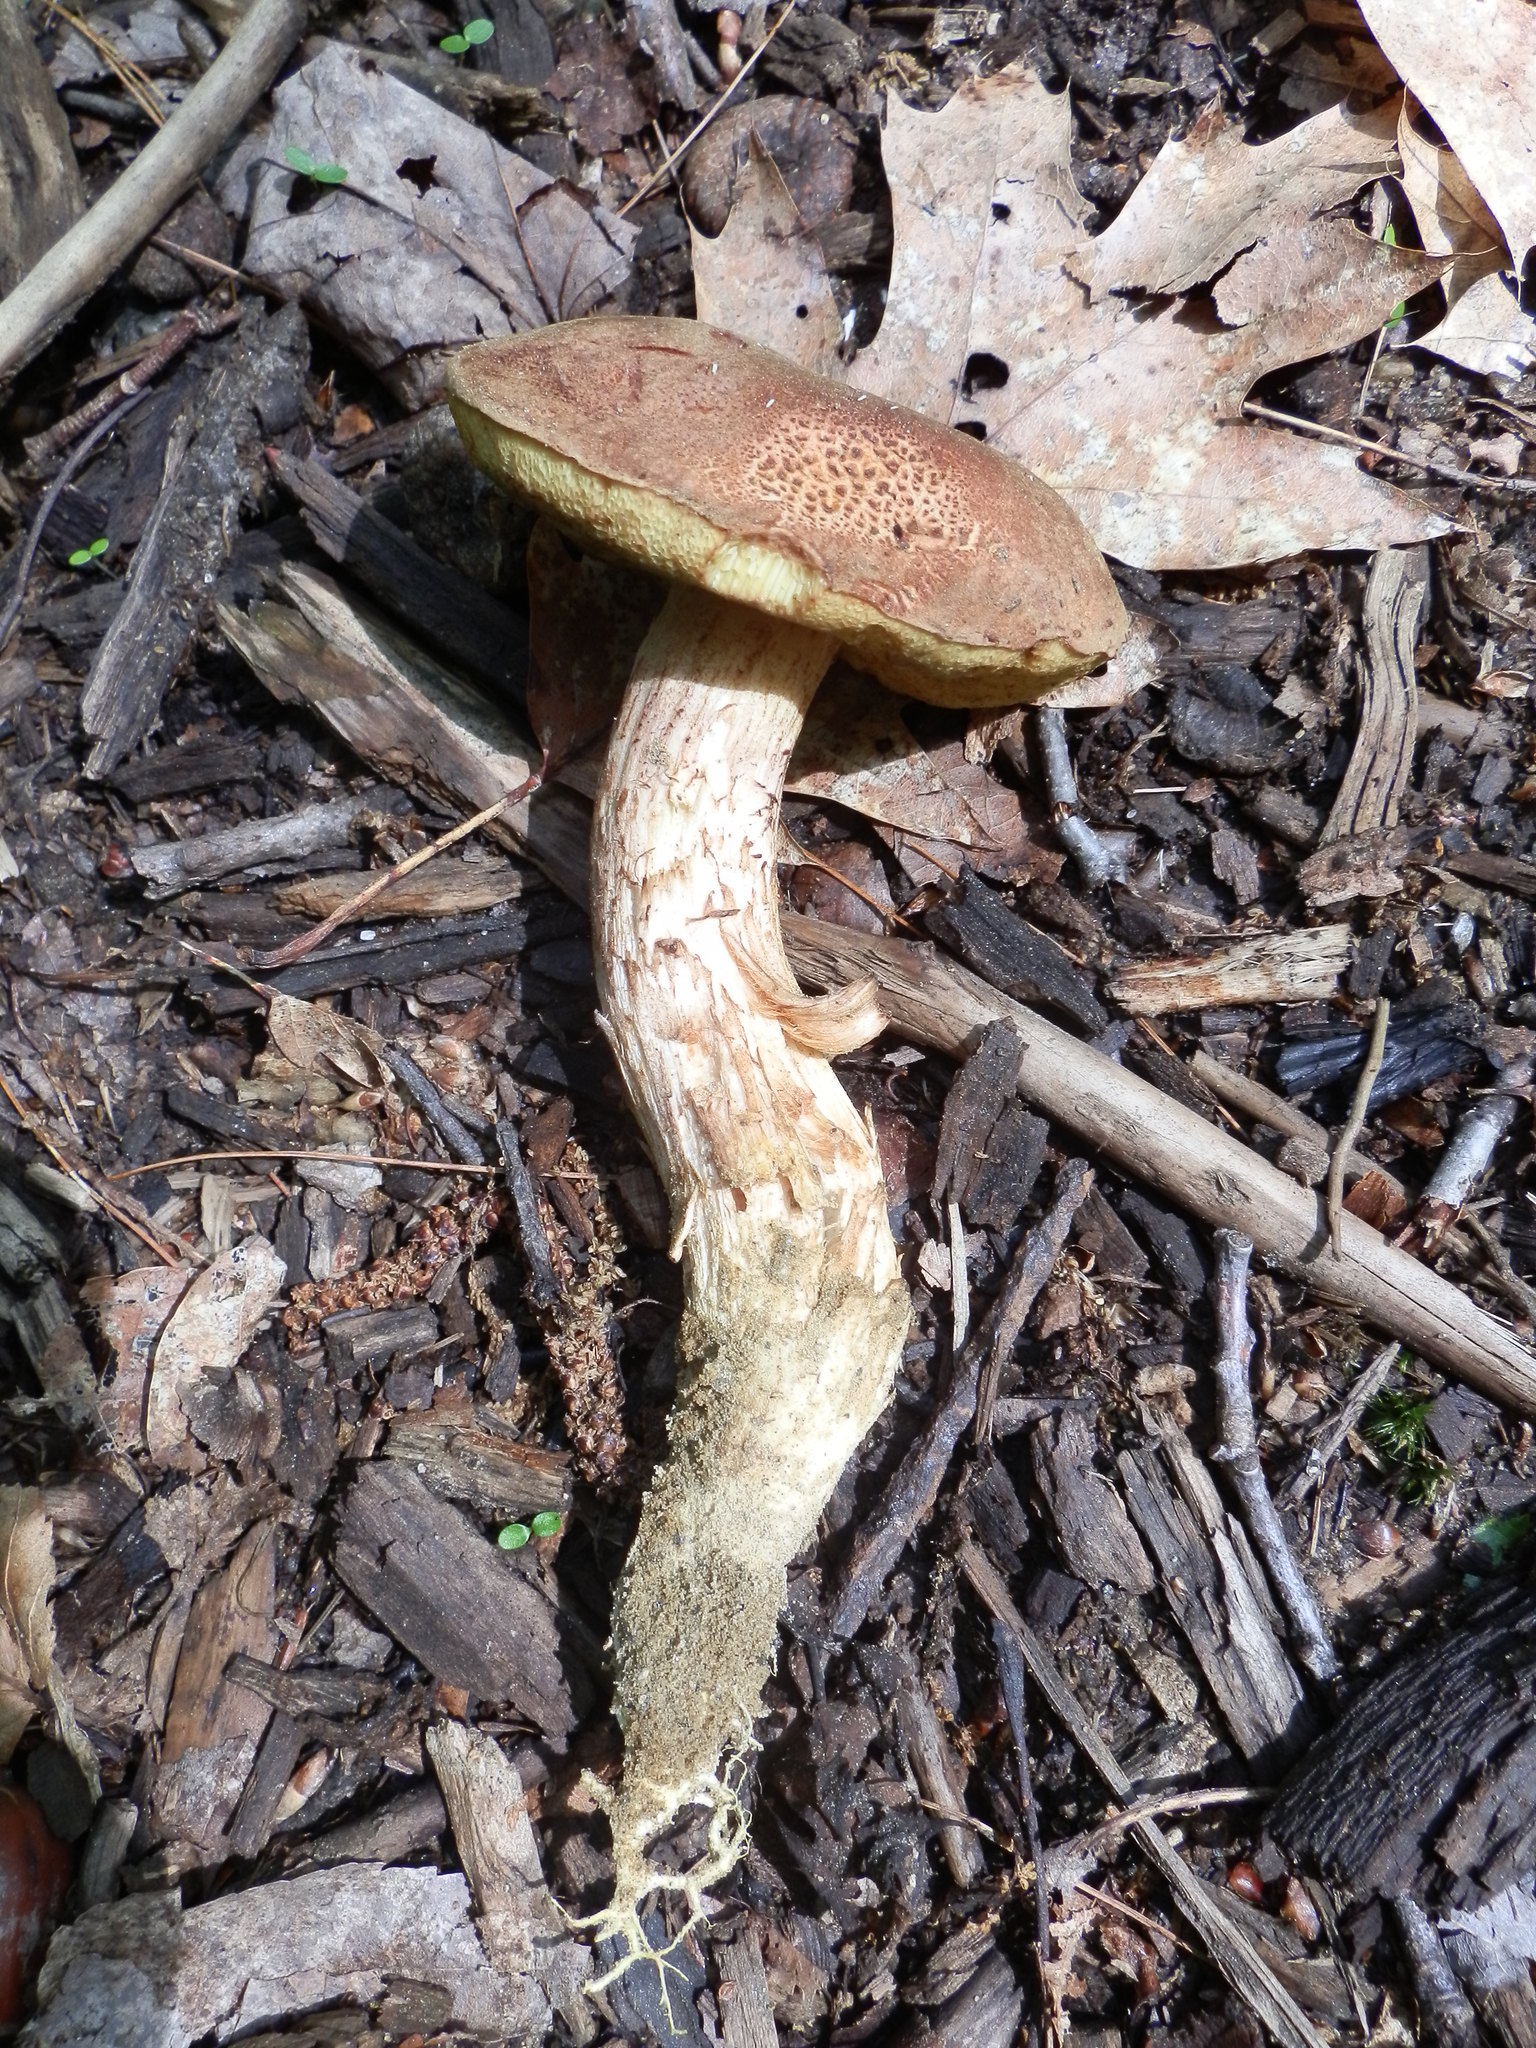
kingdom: Fungi
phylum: Basidiomycota
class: Agaricomycetes
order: Boletales
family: Boletaceae
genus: Xerocomus
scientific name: Xerocomus ferrugineus
